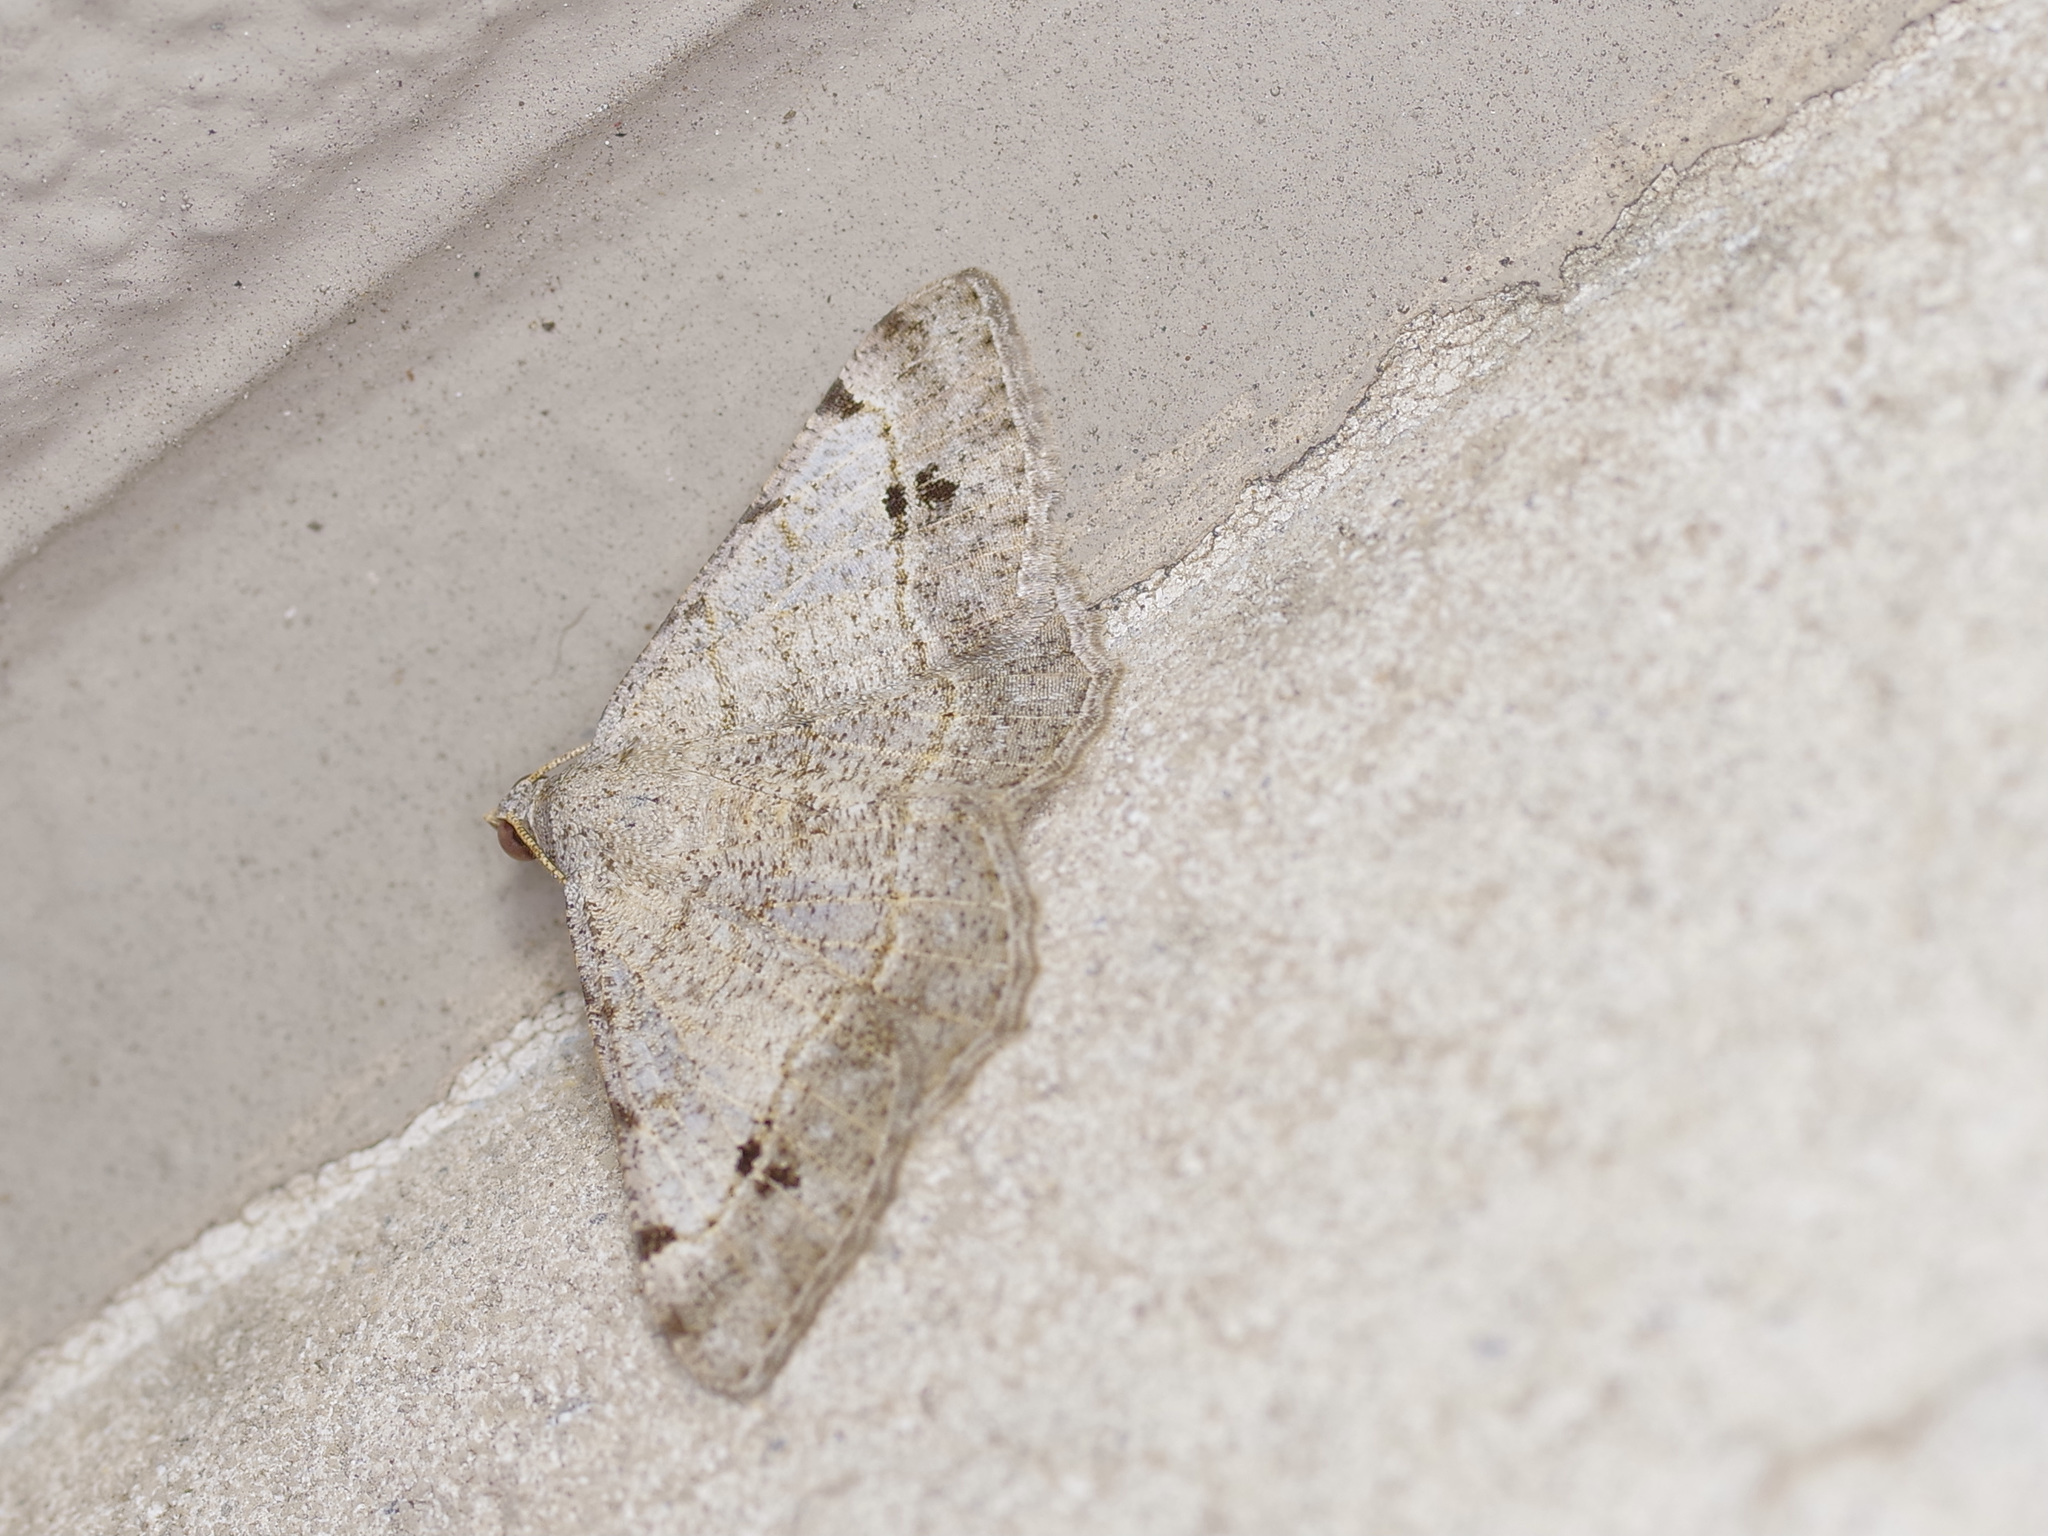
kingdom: Animalia
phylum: Arthropoda
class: Insecta
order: Lepidoptera
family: Geometridae
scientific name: Geometridae
